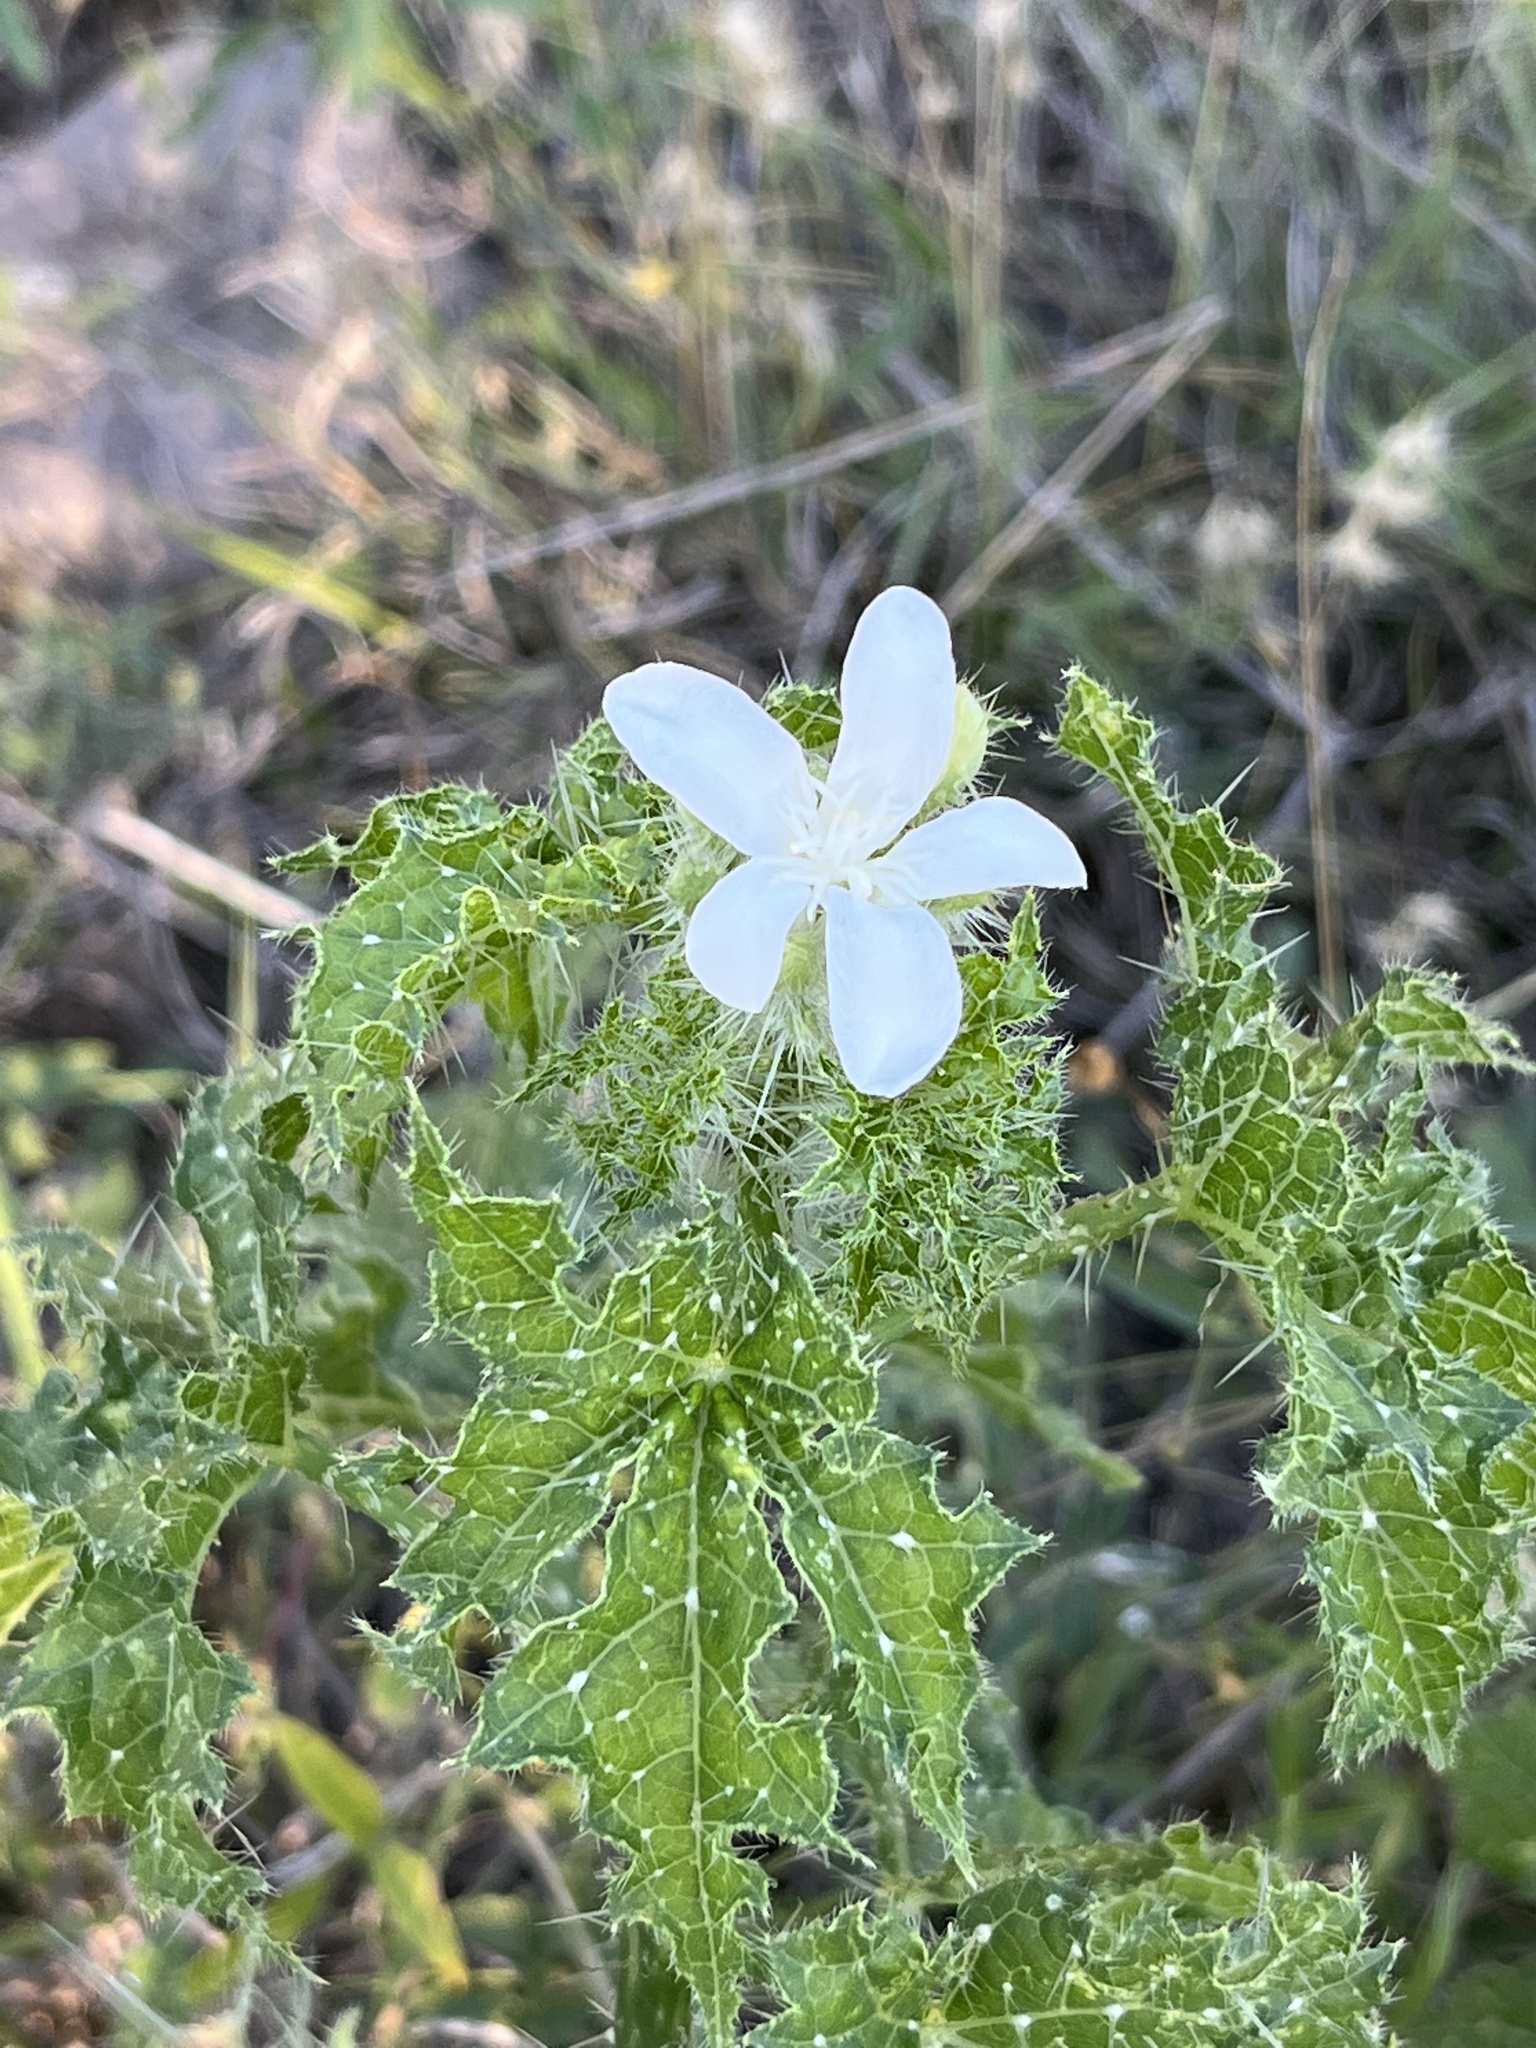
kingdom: Plantae
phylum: Tracheophyta
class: Magnoliopsida
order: Malpighiales
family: Euphorbiaceae
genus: Cnidoscolus
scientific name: Cnidoscolus texanus
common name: Texas bull-nettle
